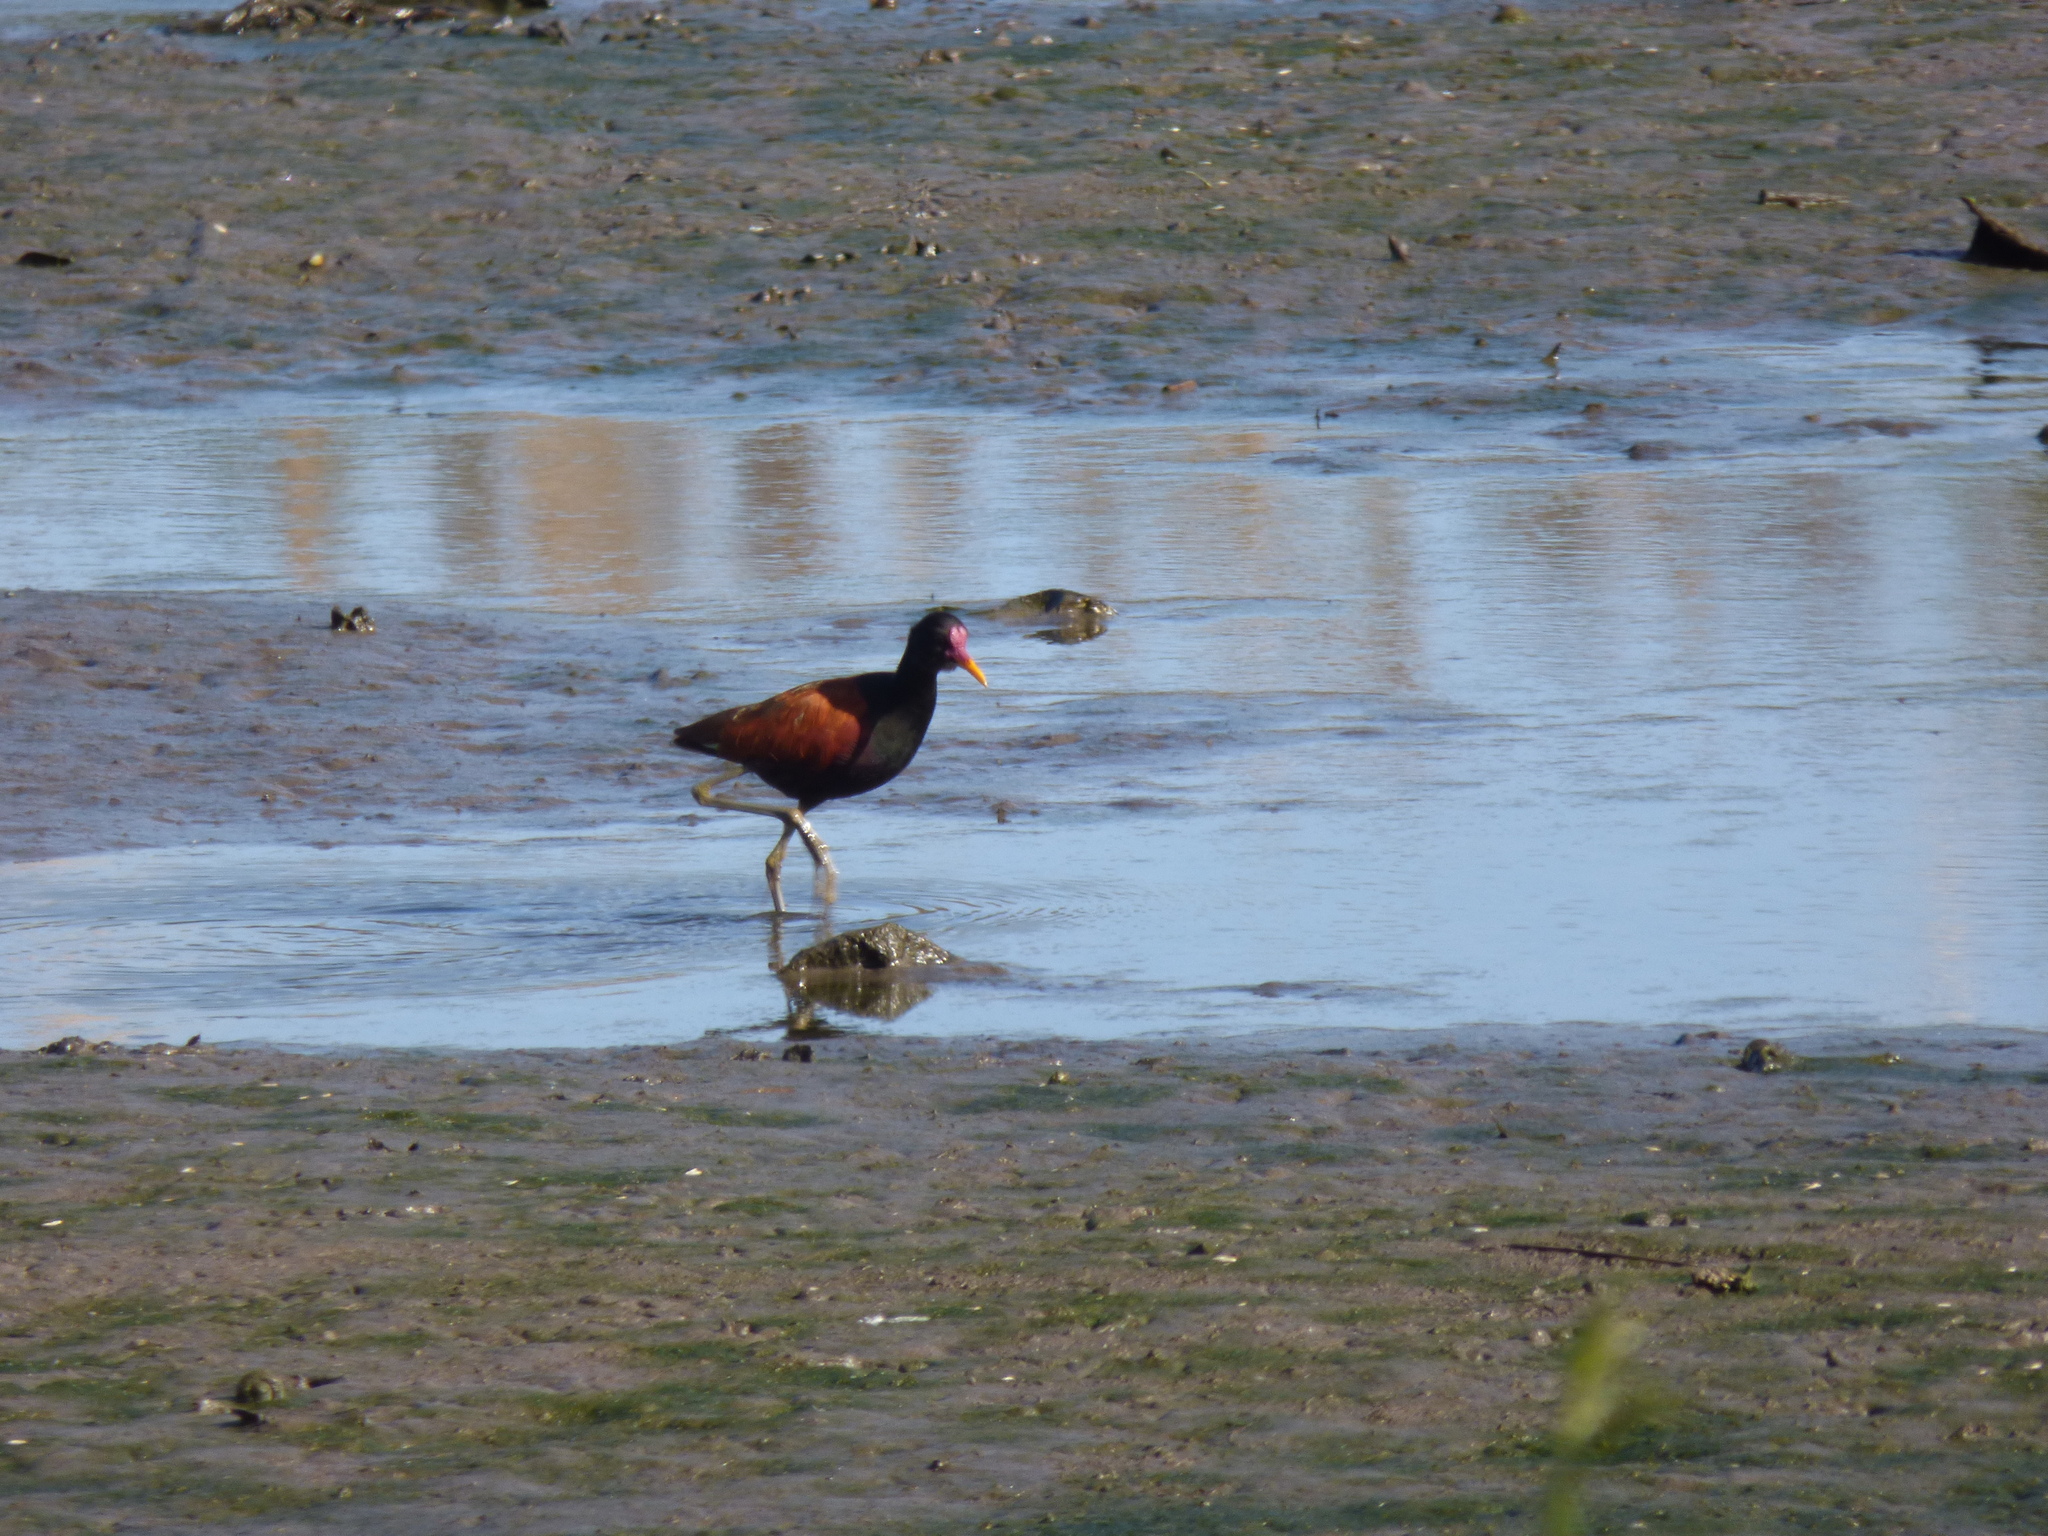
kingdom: Animalia
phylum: Chordata
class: Aves
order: Charadriiformes
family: Jacanidae
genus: Jacana
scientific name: Jacana jacana
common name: Wattled jacana
